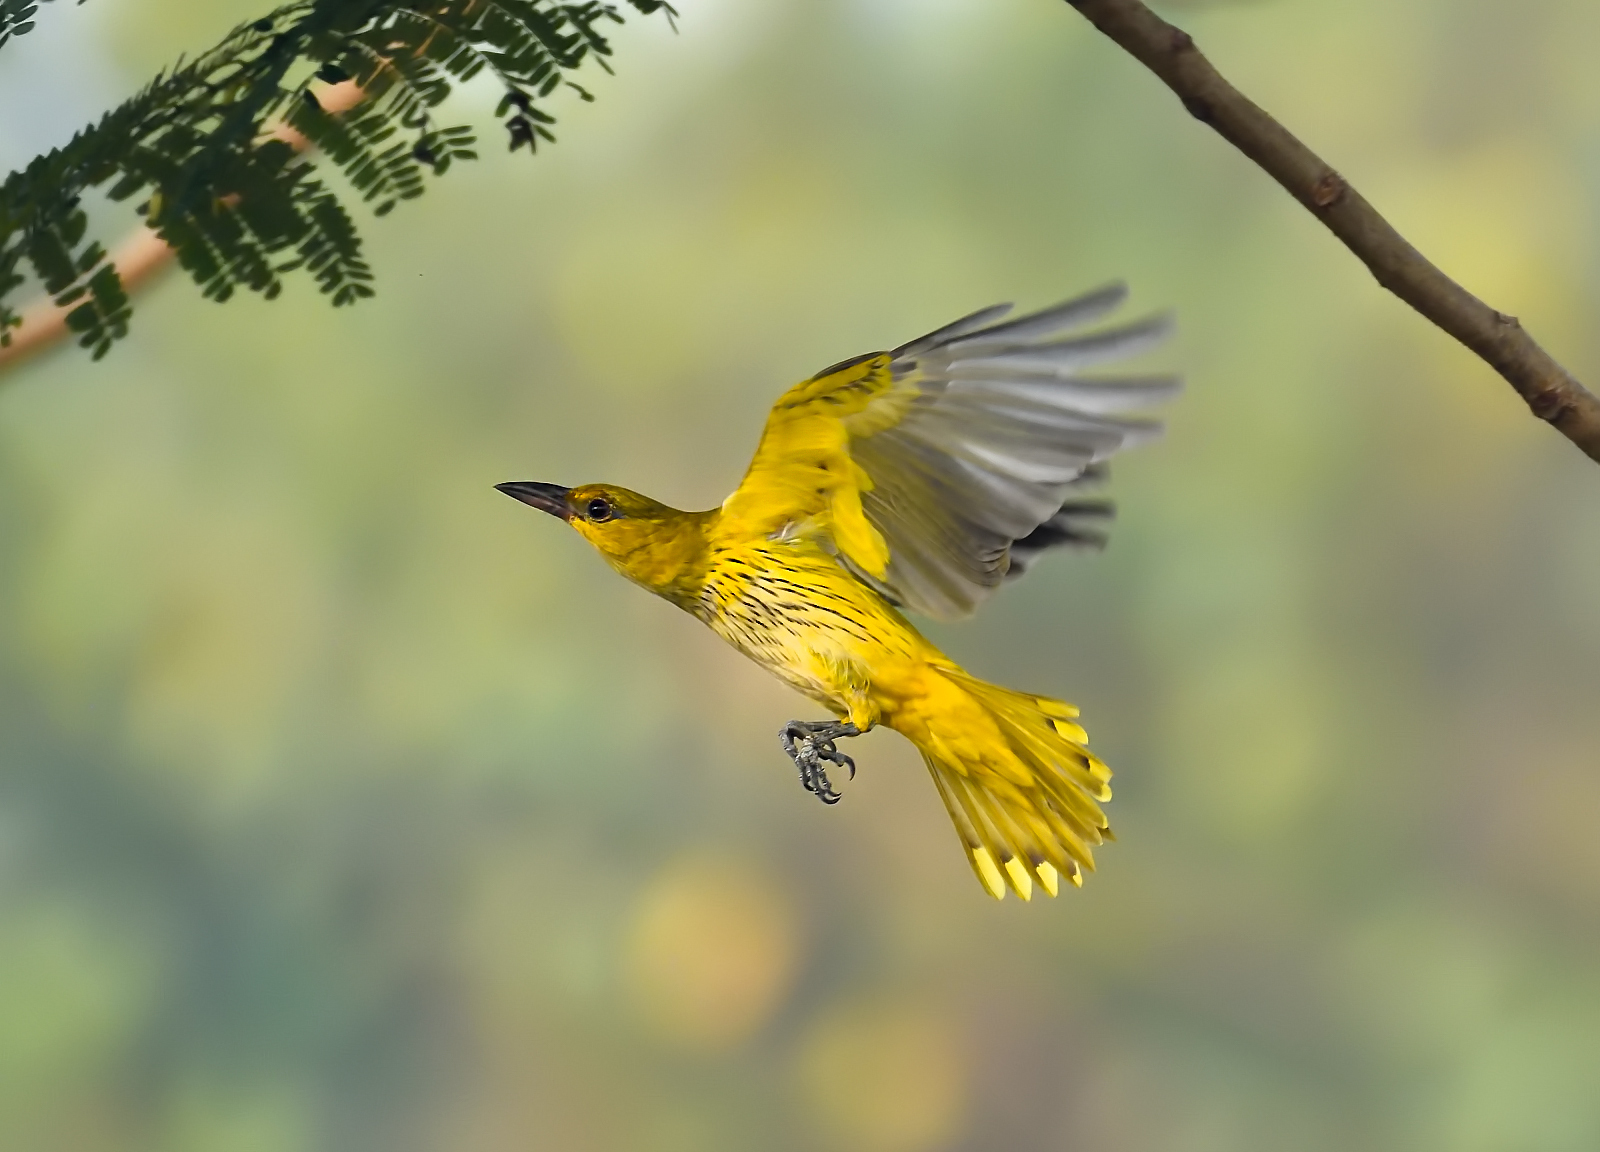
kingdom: Animalia
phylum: Chordata
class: Aves
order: Passeriformes
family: Oriolidae
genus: Oriolus
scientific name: Oriolus kundoo
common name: Indian golden oriole
